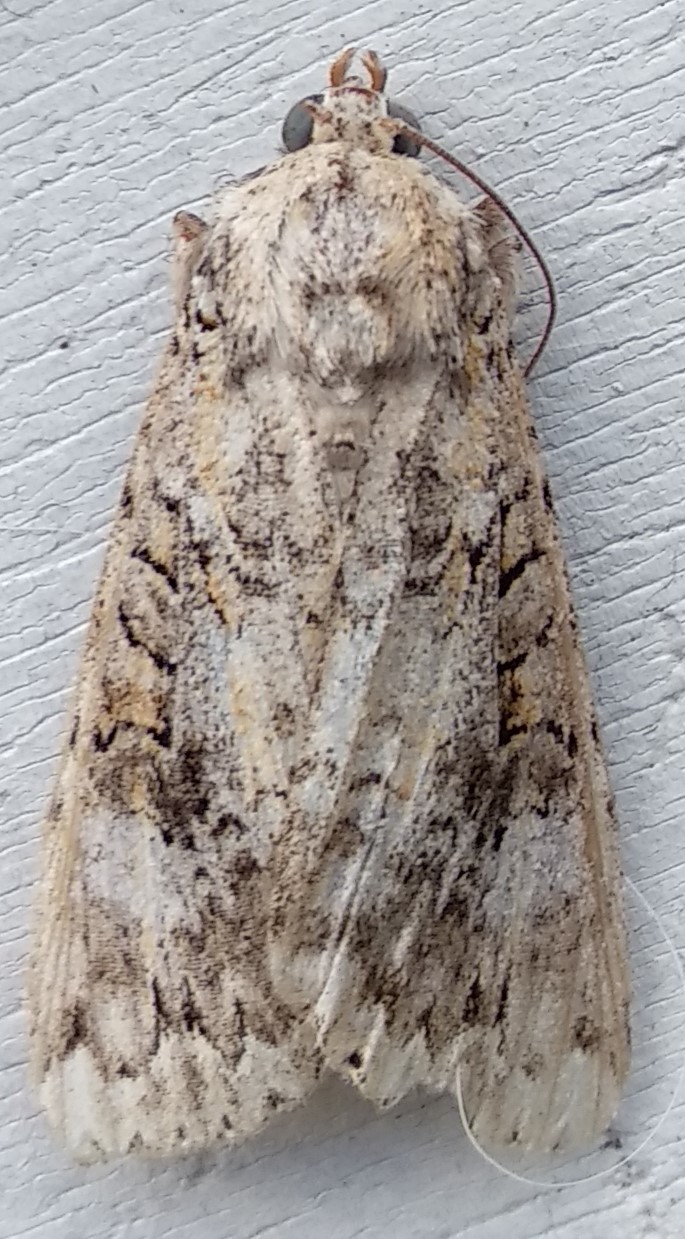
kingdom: Animalia
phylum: Arthropoda
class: Insecta
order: Lepidoptera
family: Noctuidae
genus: Polia
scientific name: Polia nimbosa
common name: Stormy arches
